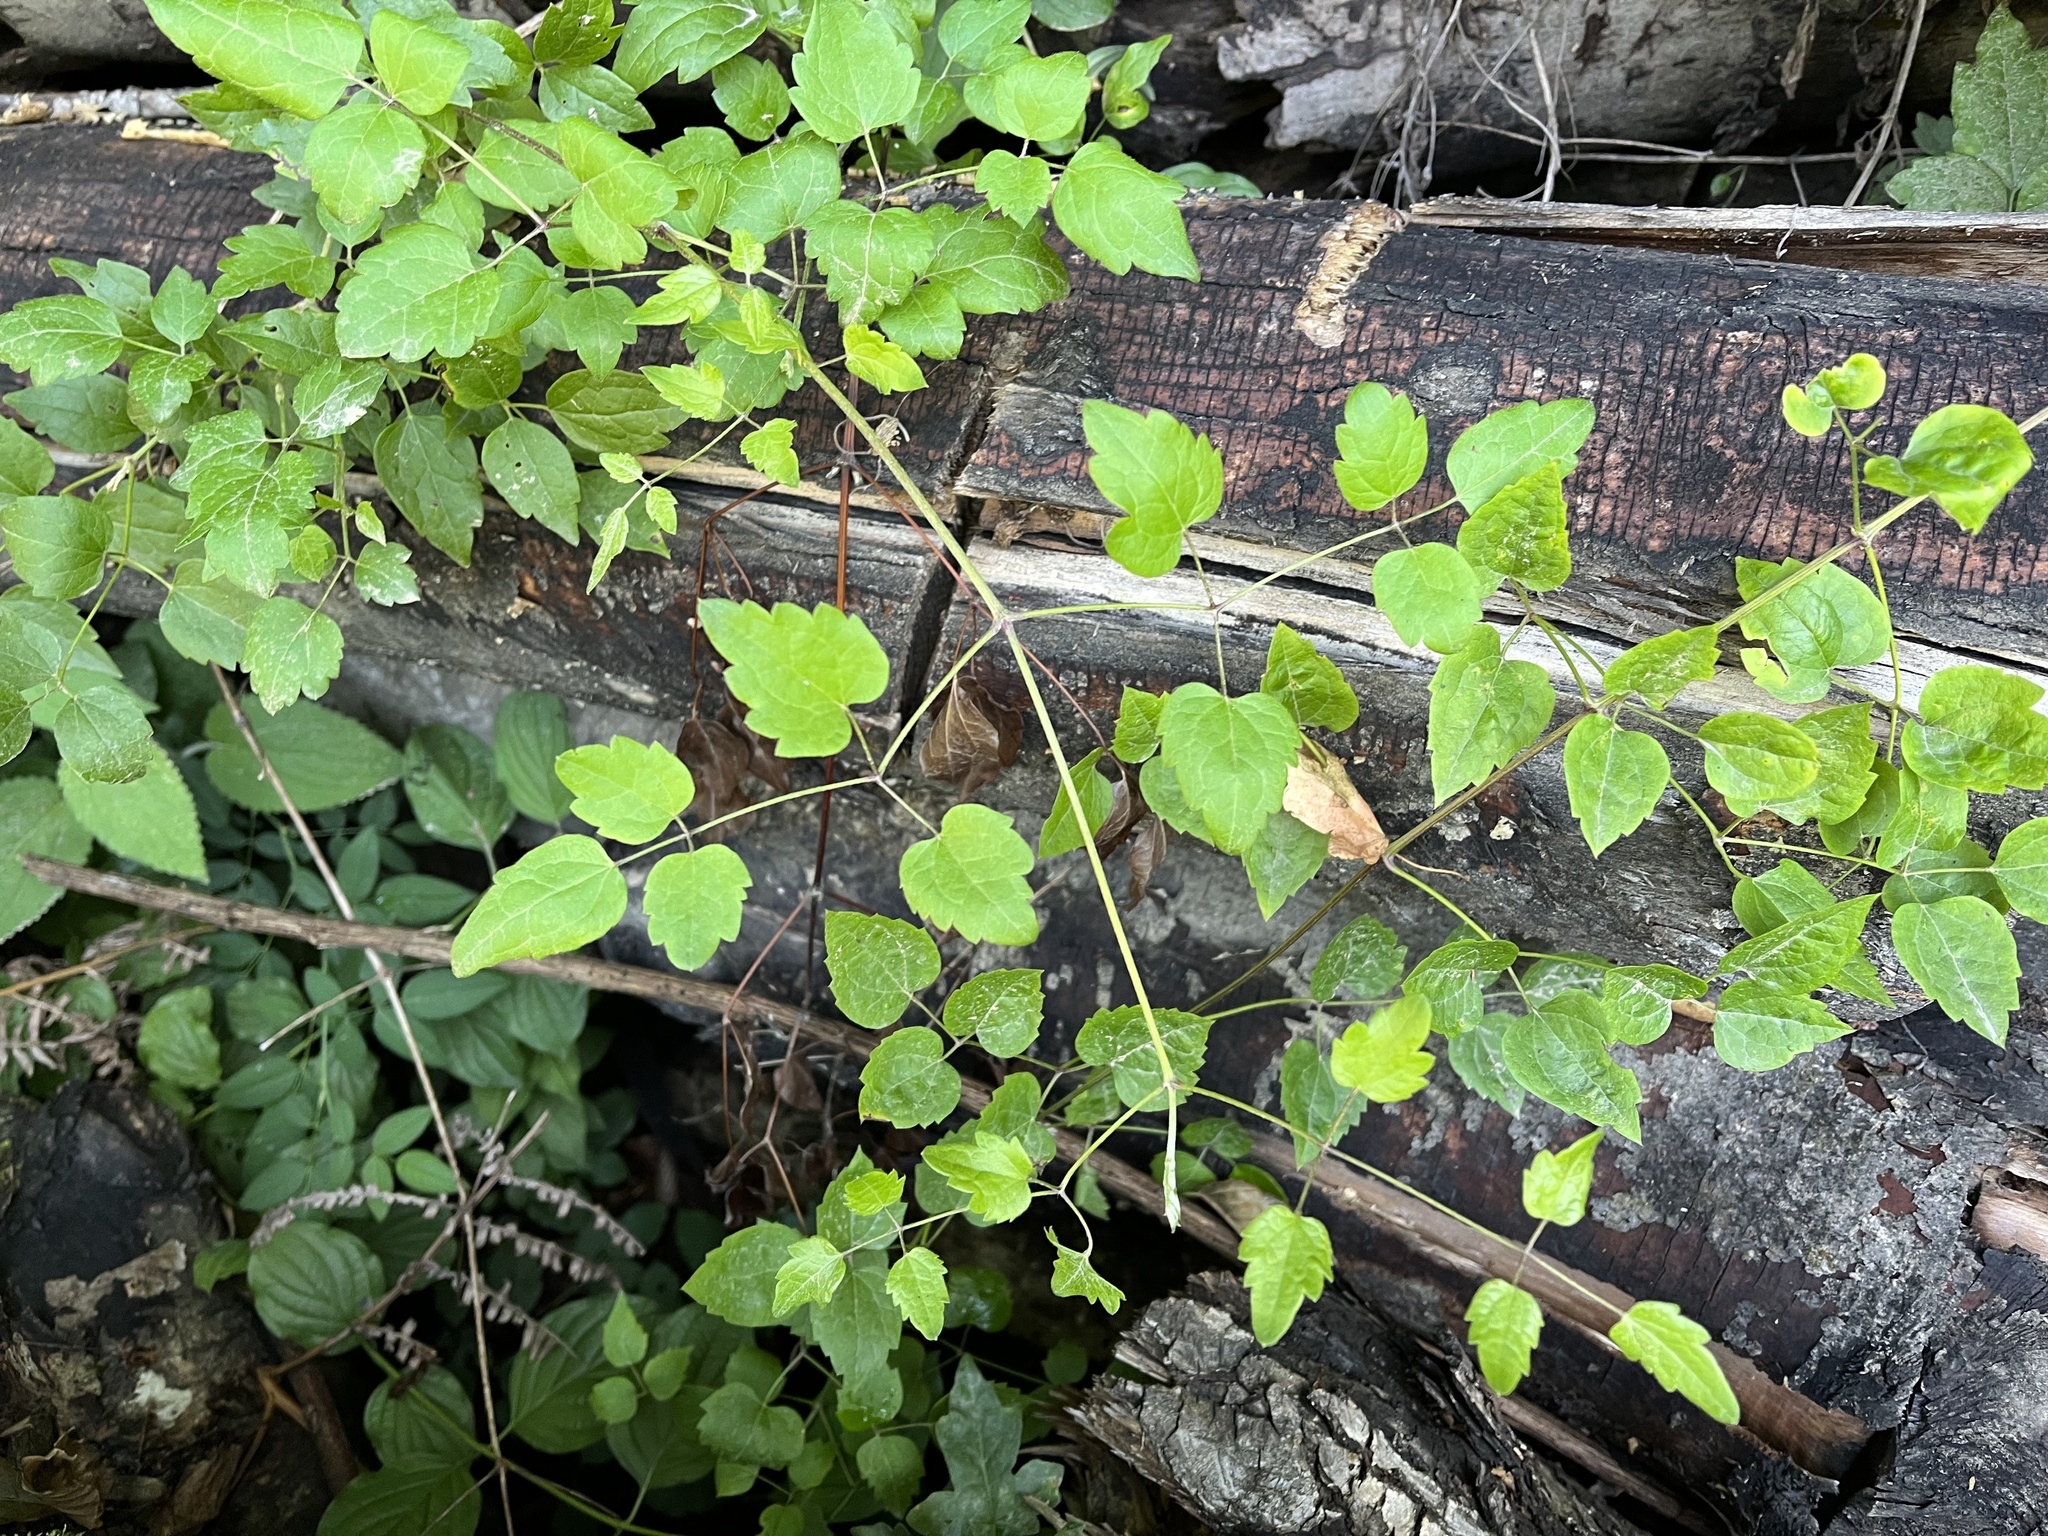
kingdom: Plantae
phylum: Tracheophyta
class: Magnoliopsida
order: Ranunculales
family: Ranunculaceae
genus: Clematis
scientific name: Clematis vitalba
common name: Evergreen clematis
